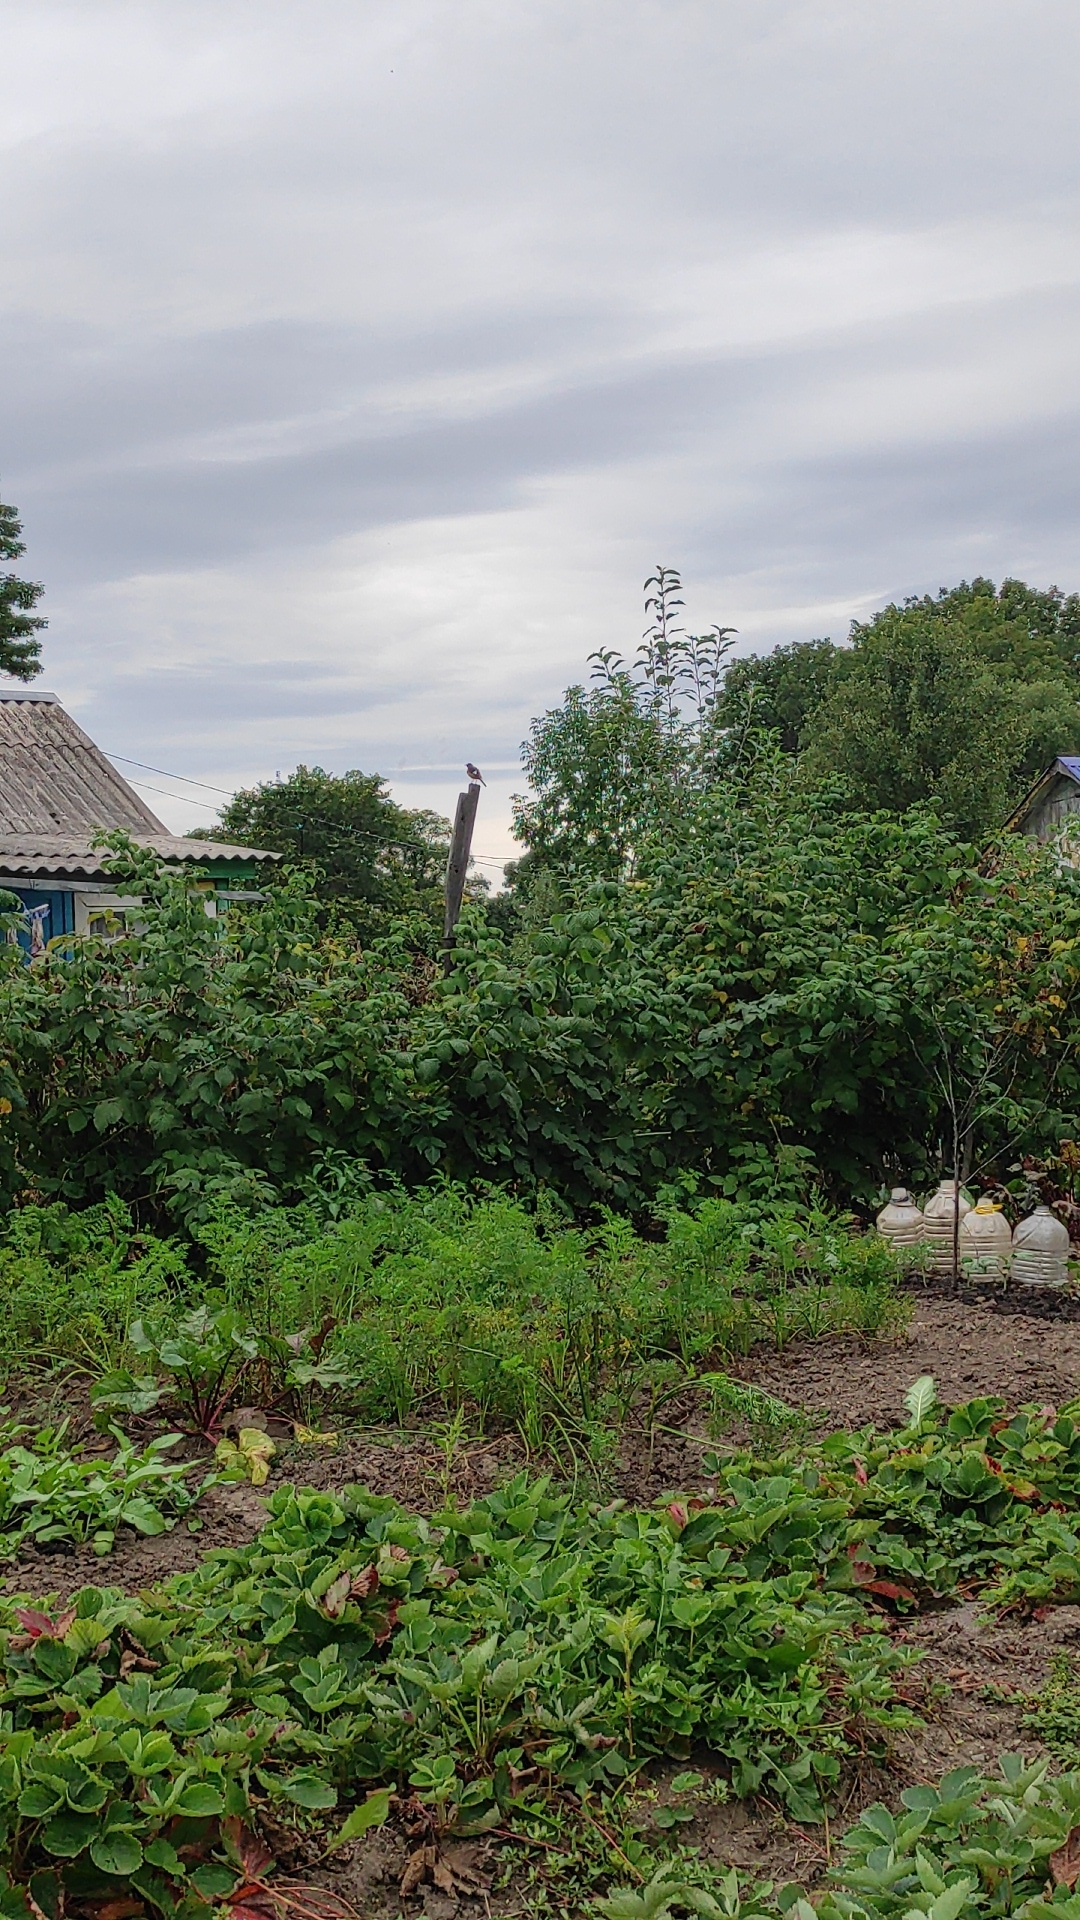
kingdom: Animalia
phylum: Chordata
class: Aves
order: Passeriformes
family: Muscicapidae
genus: Phoenicurus
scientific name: Phoenicurus auroreus
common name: Daurian redstart
